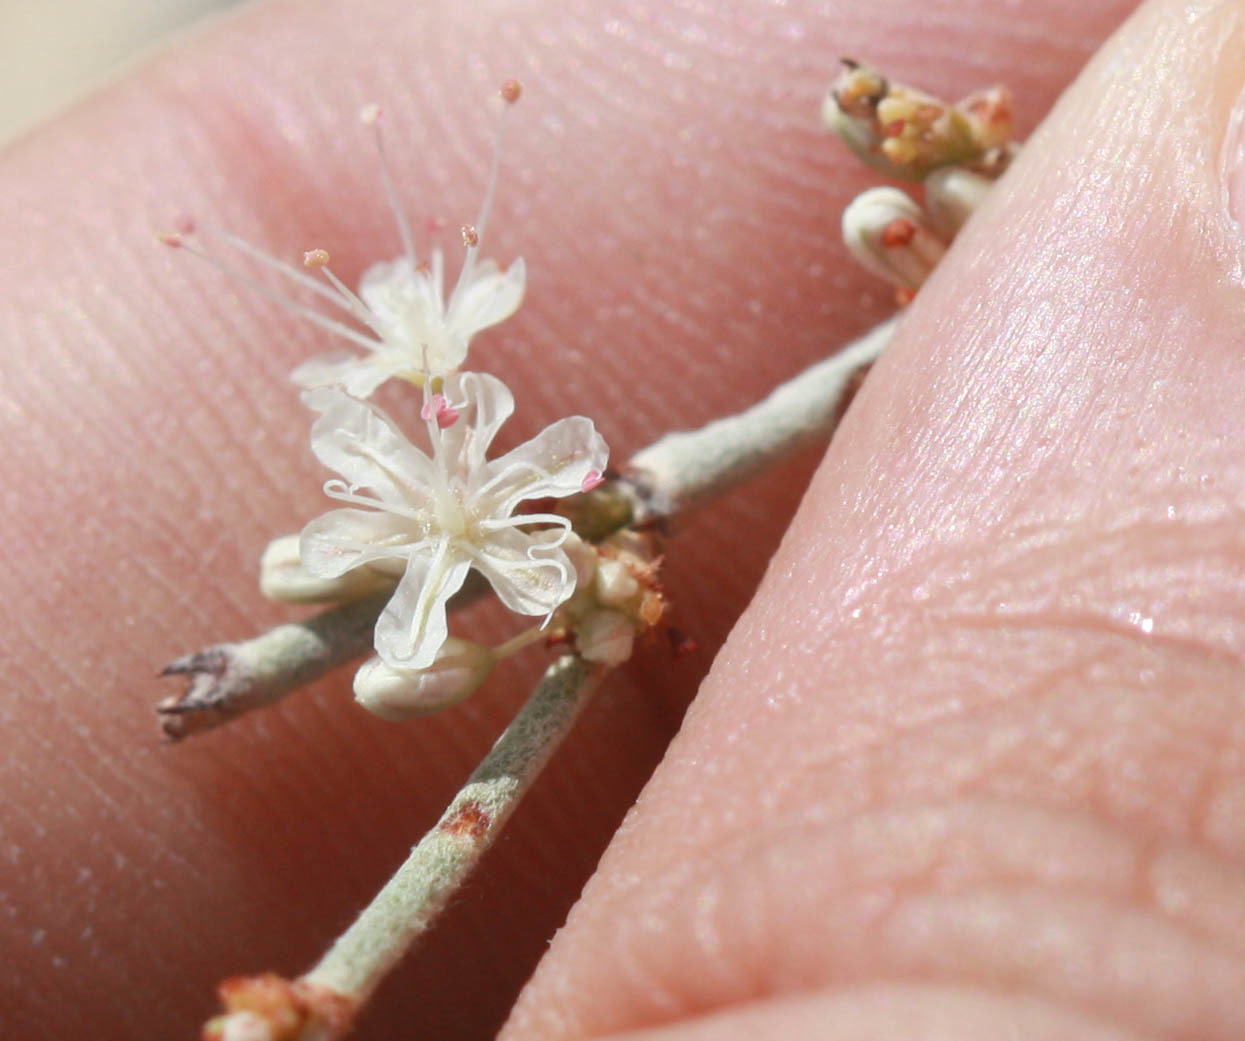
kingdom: Plantae
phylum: Tracheophyta
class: Magnoliopsida
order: Caryophyllales
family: Polygonaceae
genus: Eriogonum
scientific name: Eriogonum wrightii
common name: Bastard-sage
